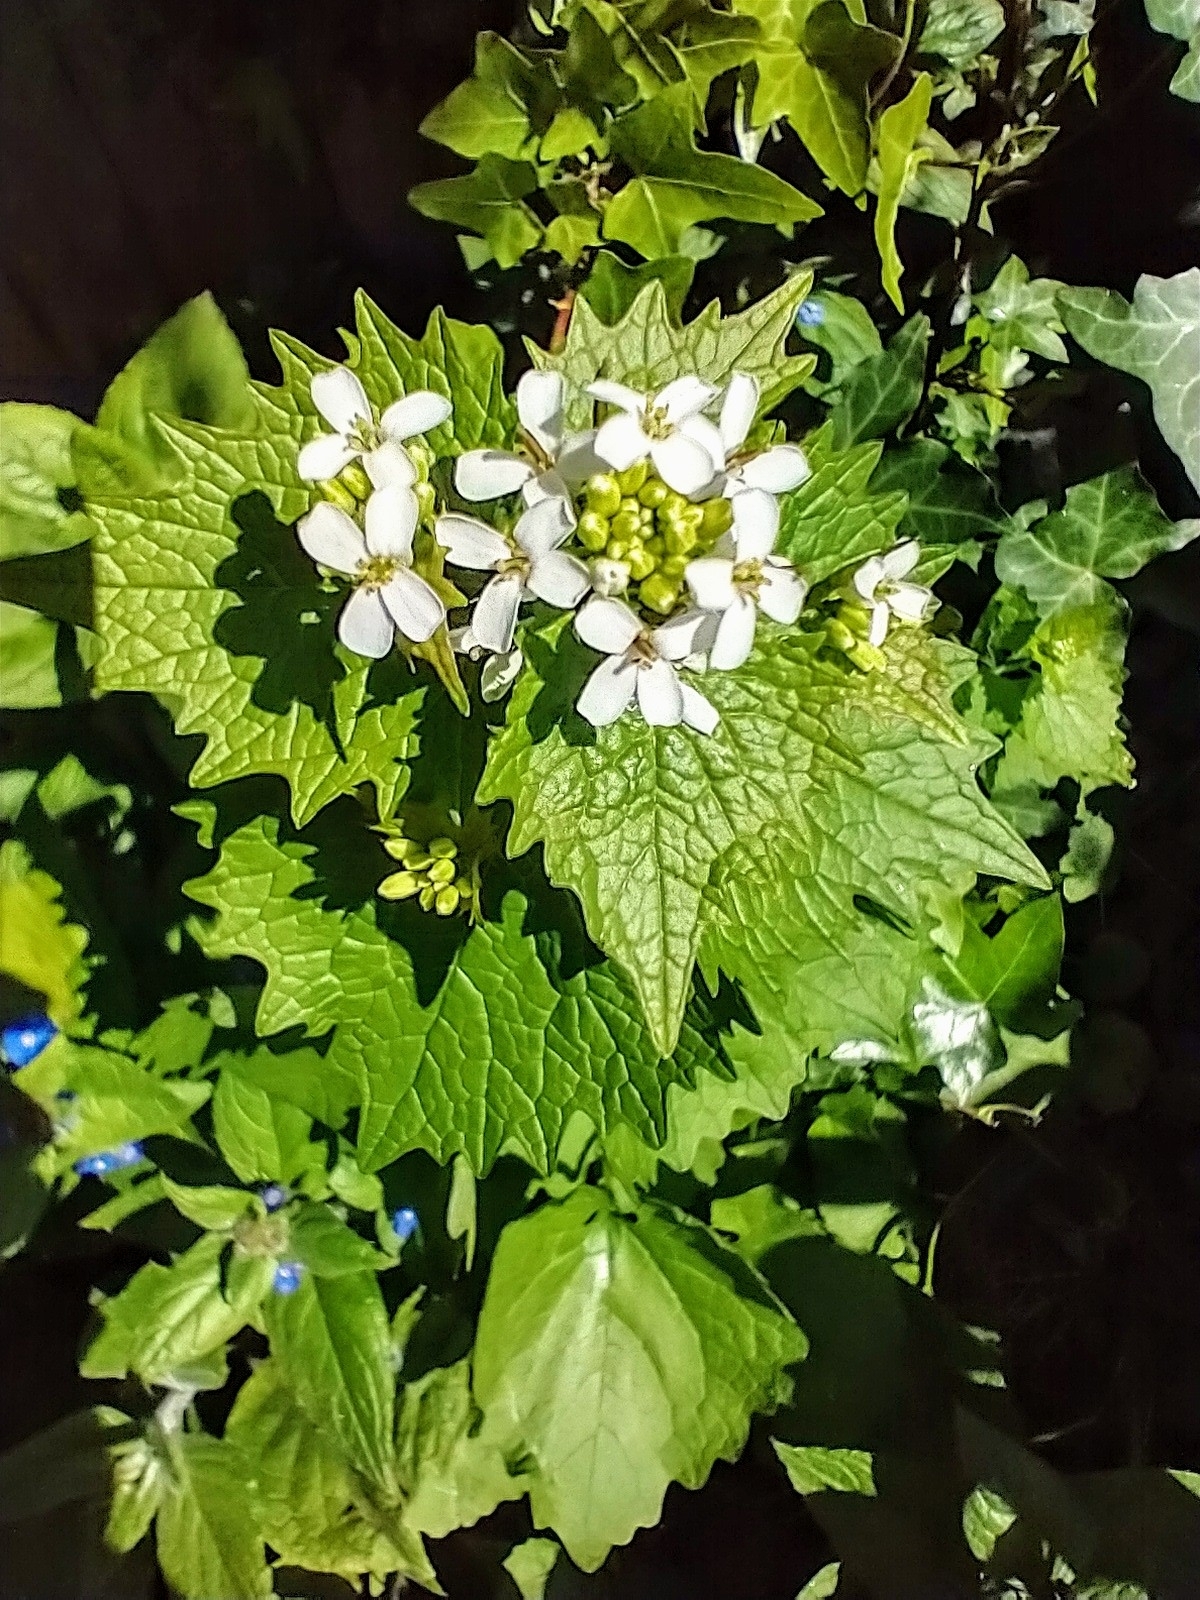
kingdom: Plantae
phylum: Tracheophyta
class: Magnoliopsida
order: Brassicales
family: Brassicaceae
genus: Alliaria
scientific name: Alliaria petiolata
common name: Garlic mustard
